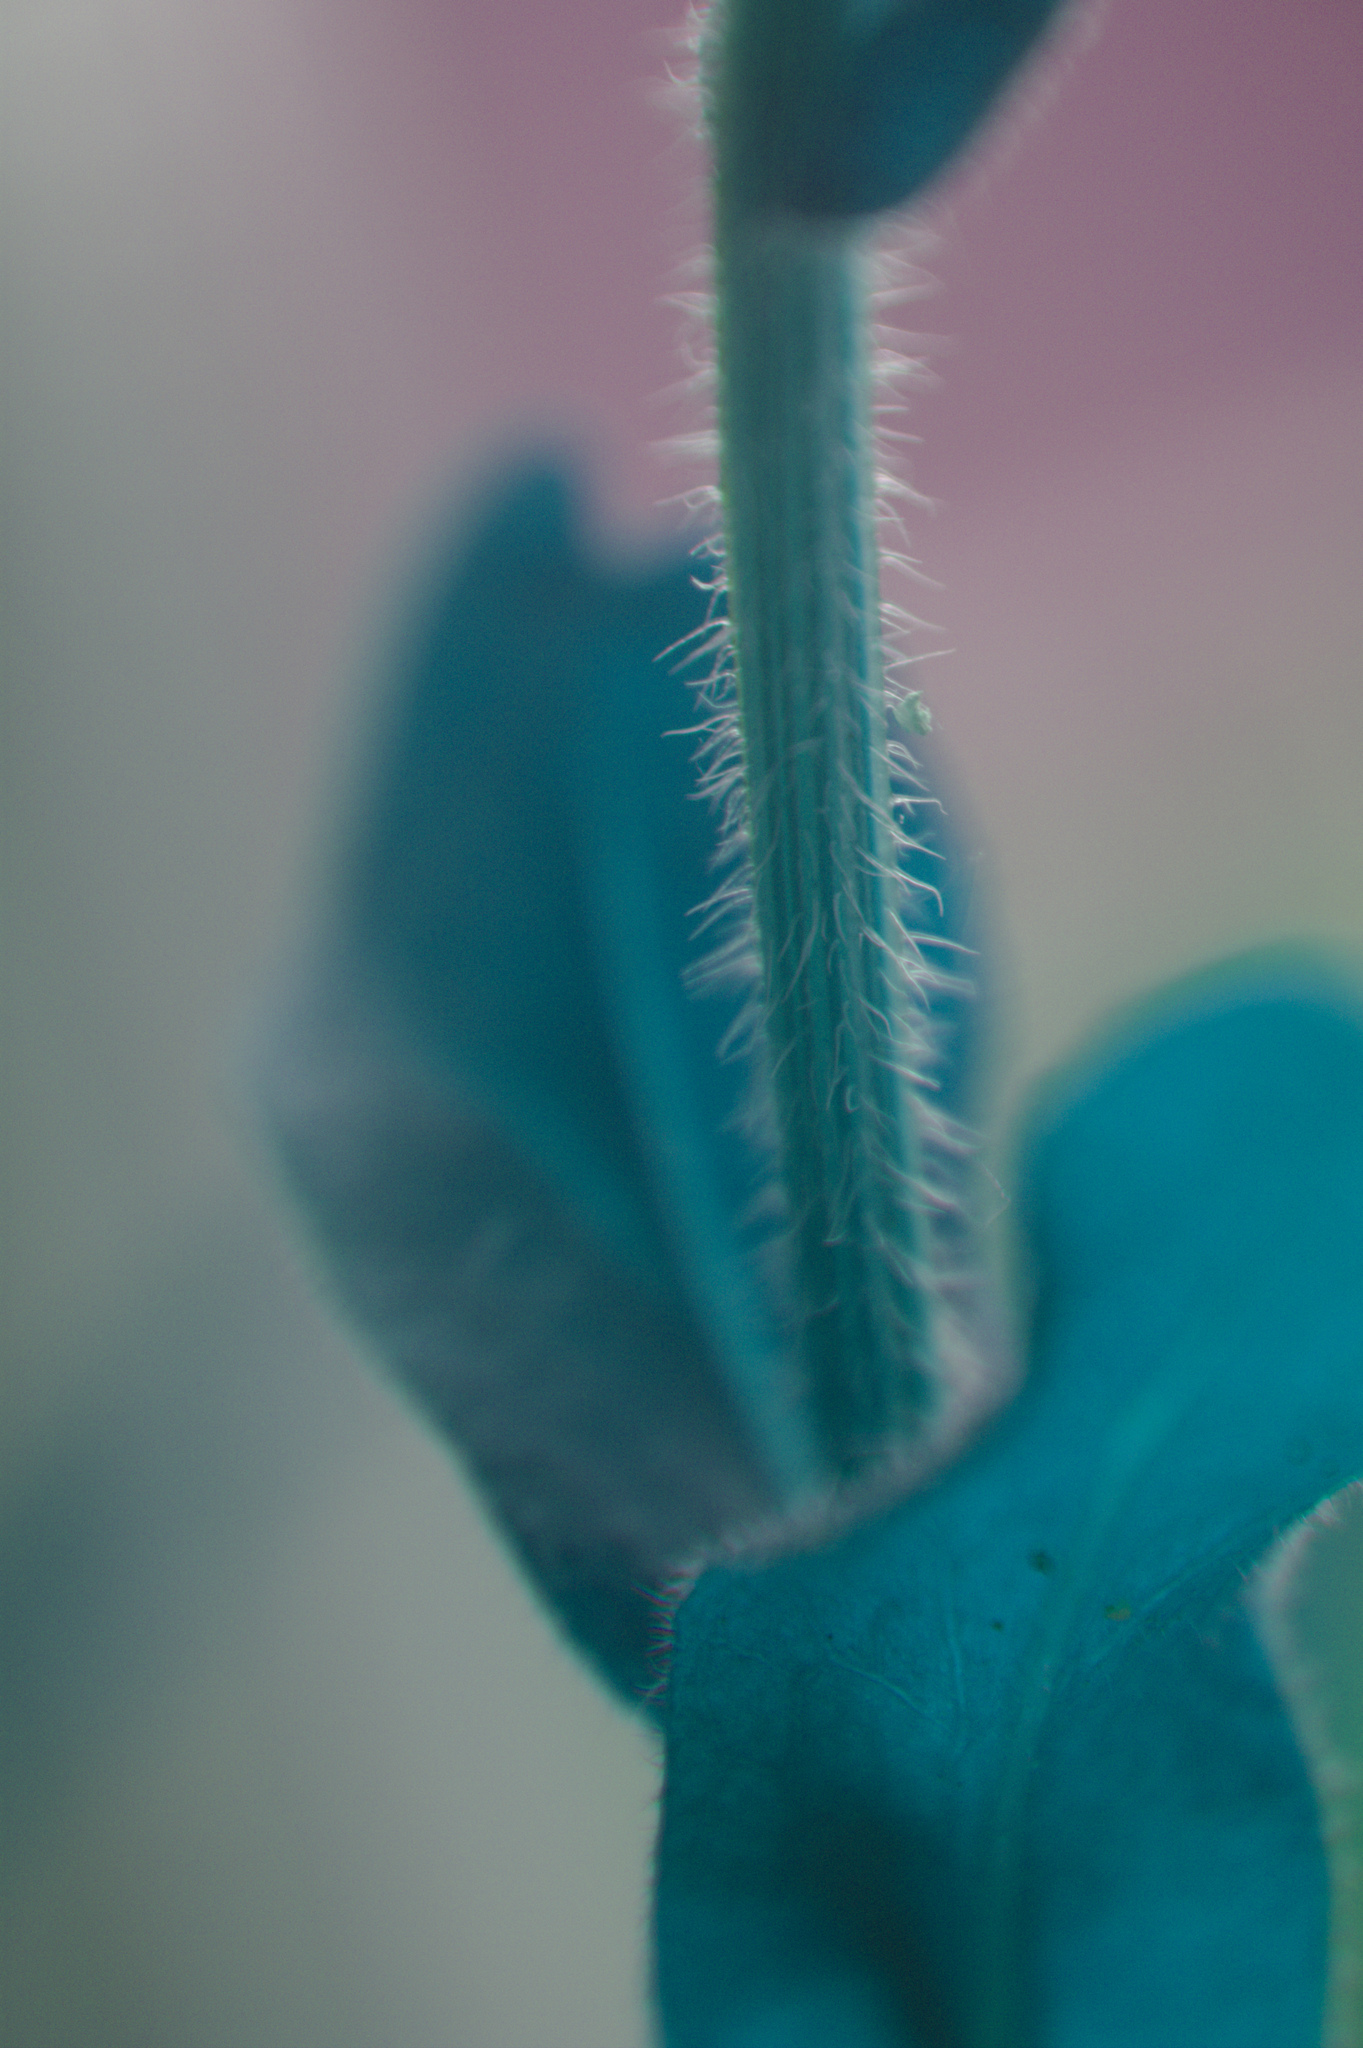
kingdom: Plantae
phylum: Tracheophyta
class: Magnoliopsida
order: Asterales
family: Asteraceae
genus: Erigeron
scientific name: Erigeron philadelphicus
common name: Robin's-plantain
